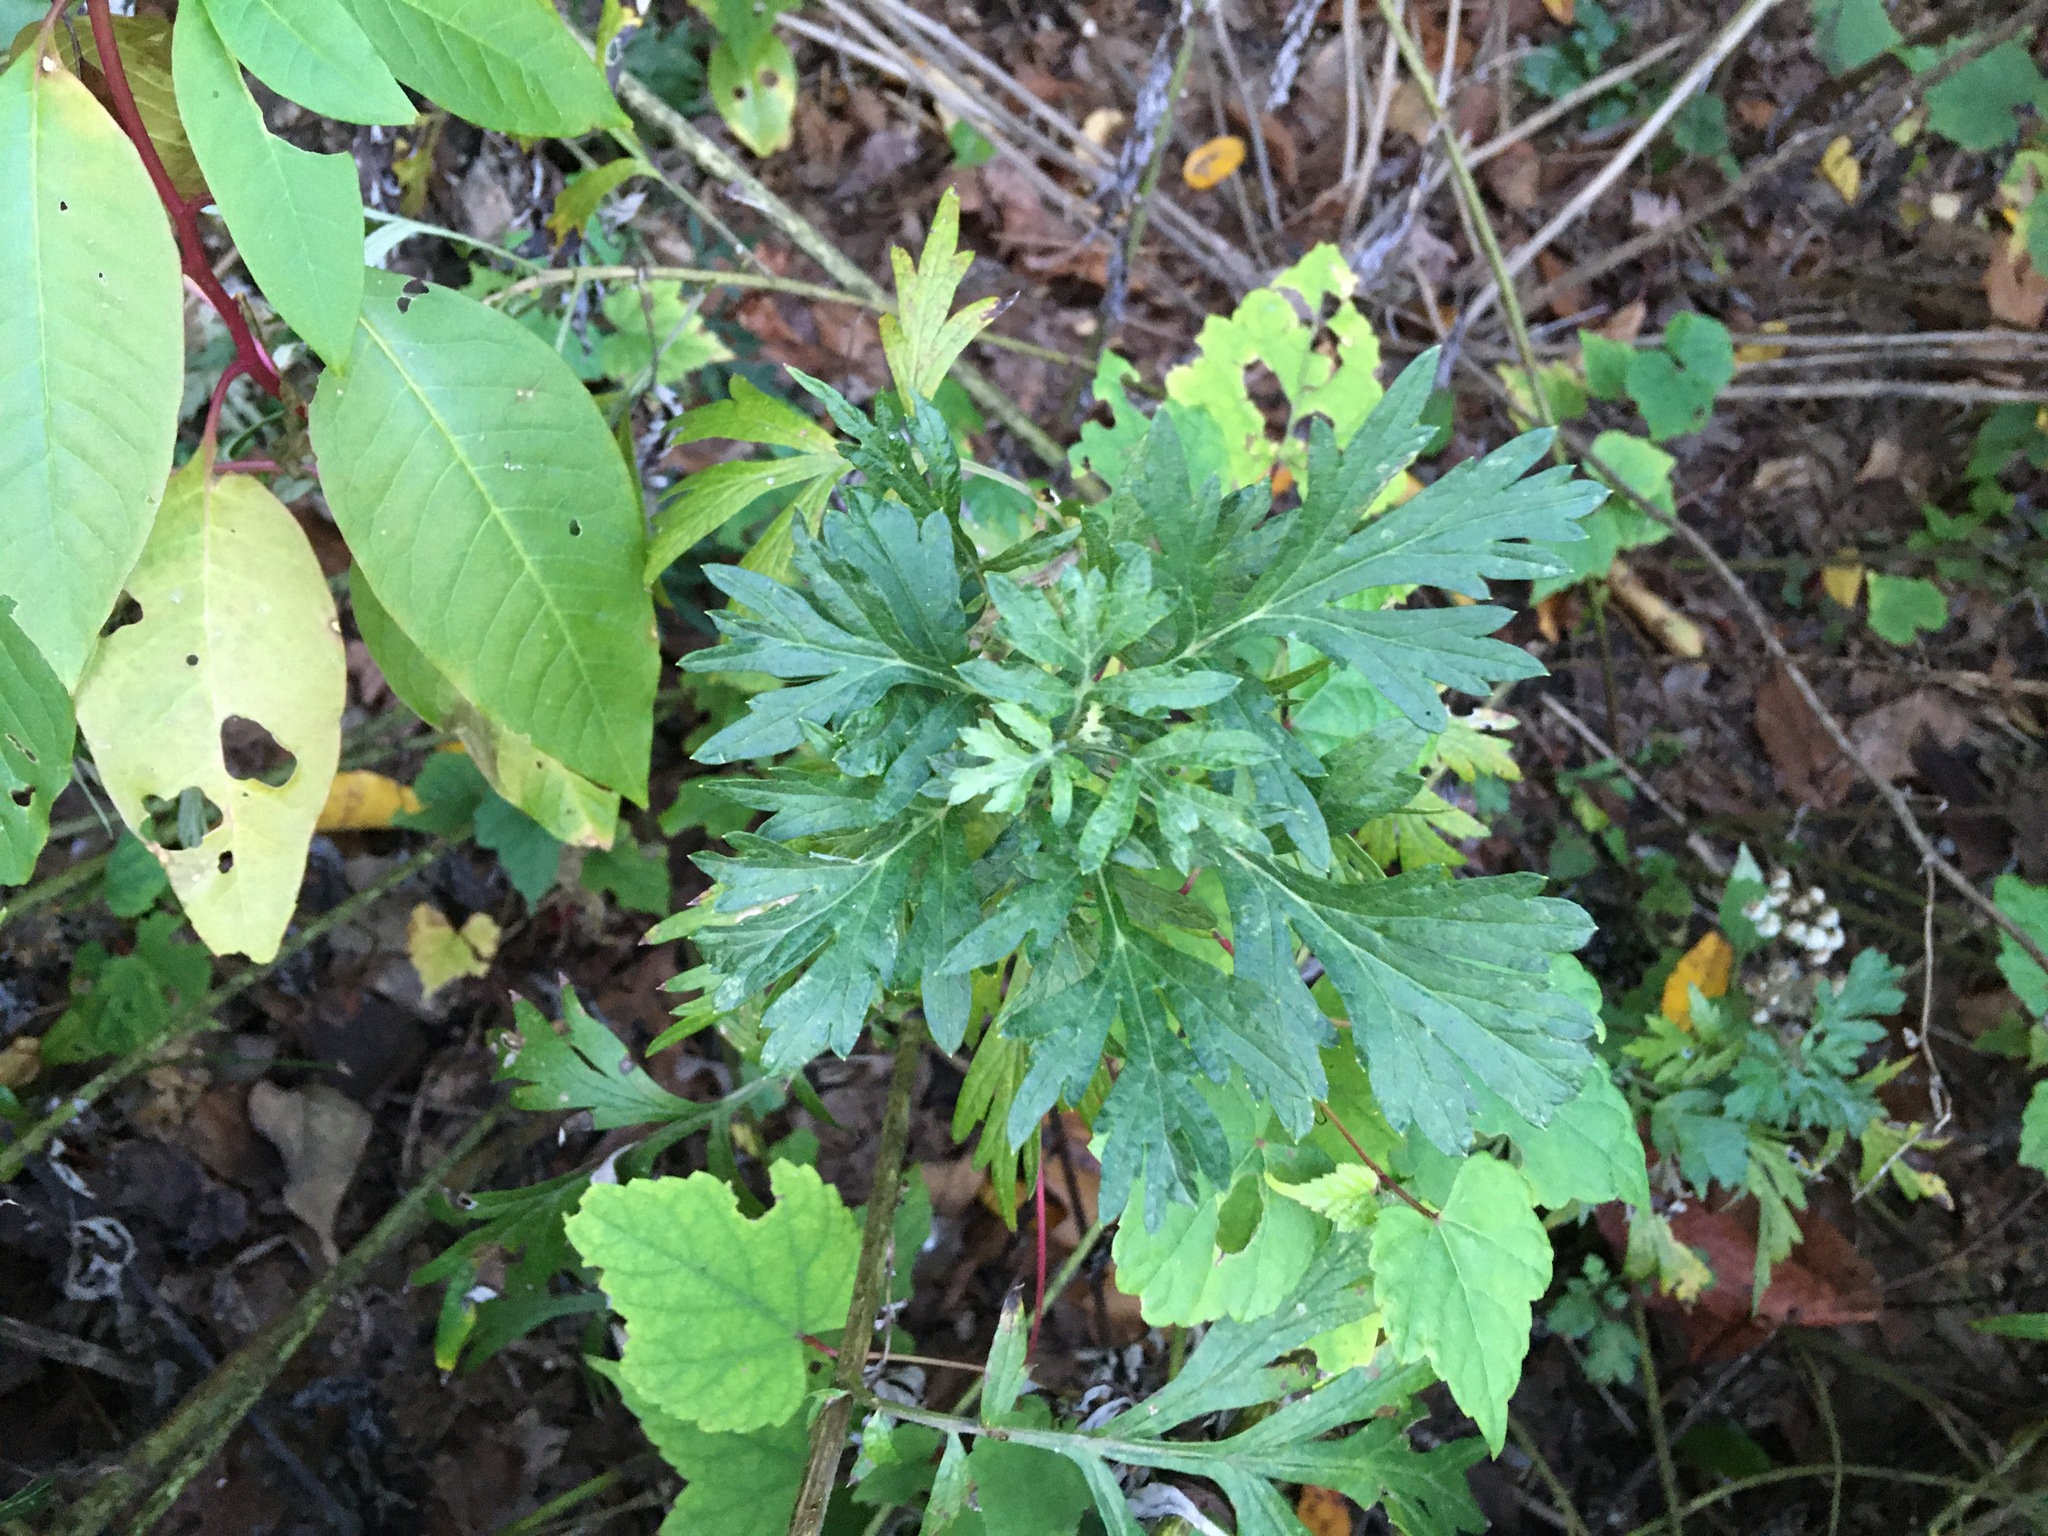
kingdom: Plantae
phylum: Tracheophyta
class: Magnoliopsida
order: Asterales
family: Asteraceae
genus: Artemisia
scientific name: Artemisia vulgaris
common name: Mugwort
